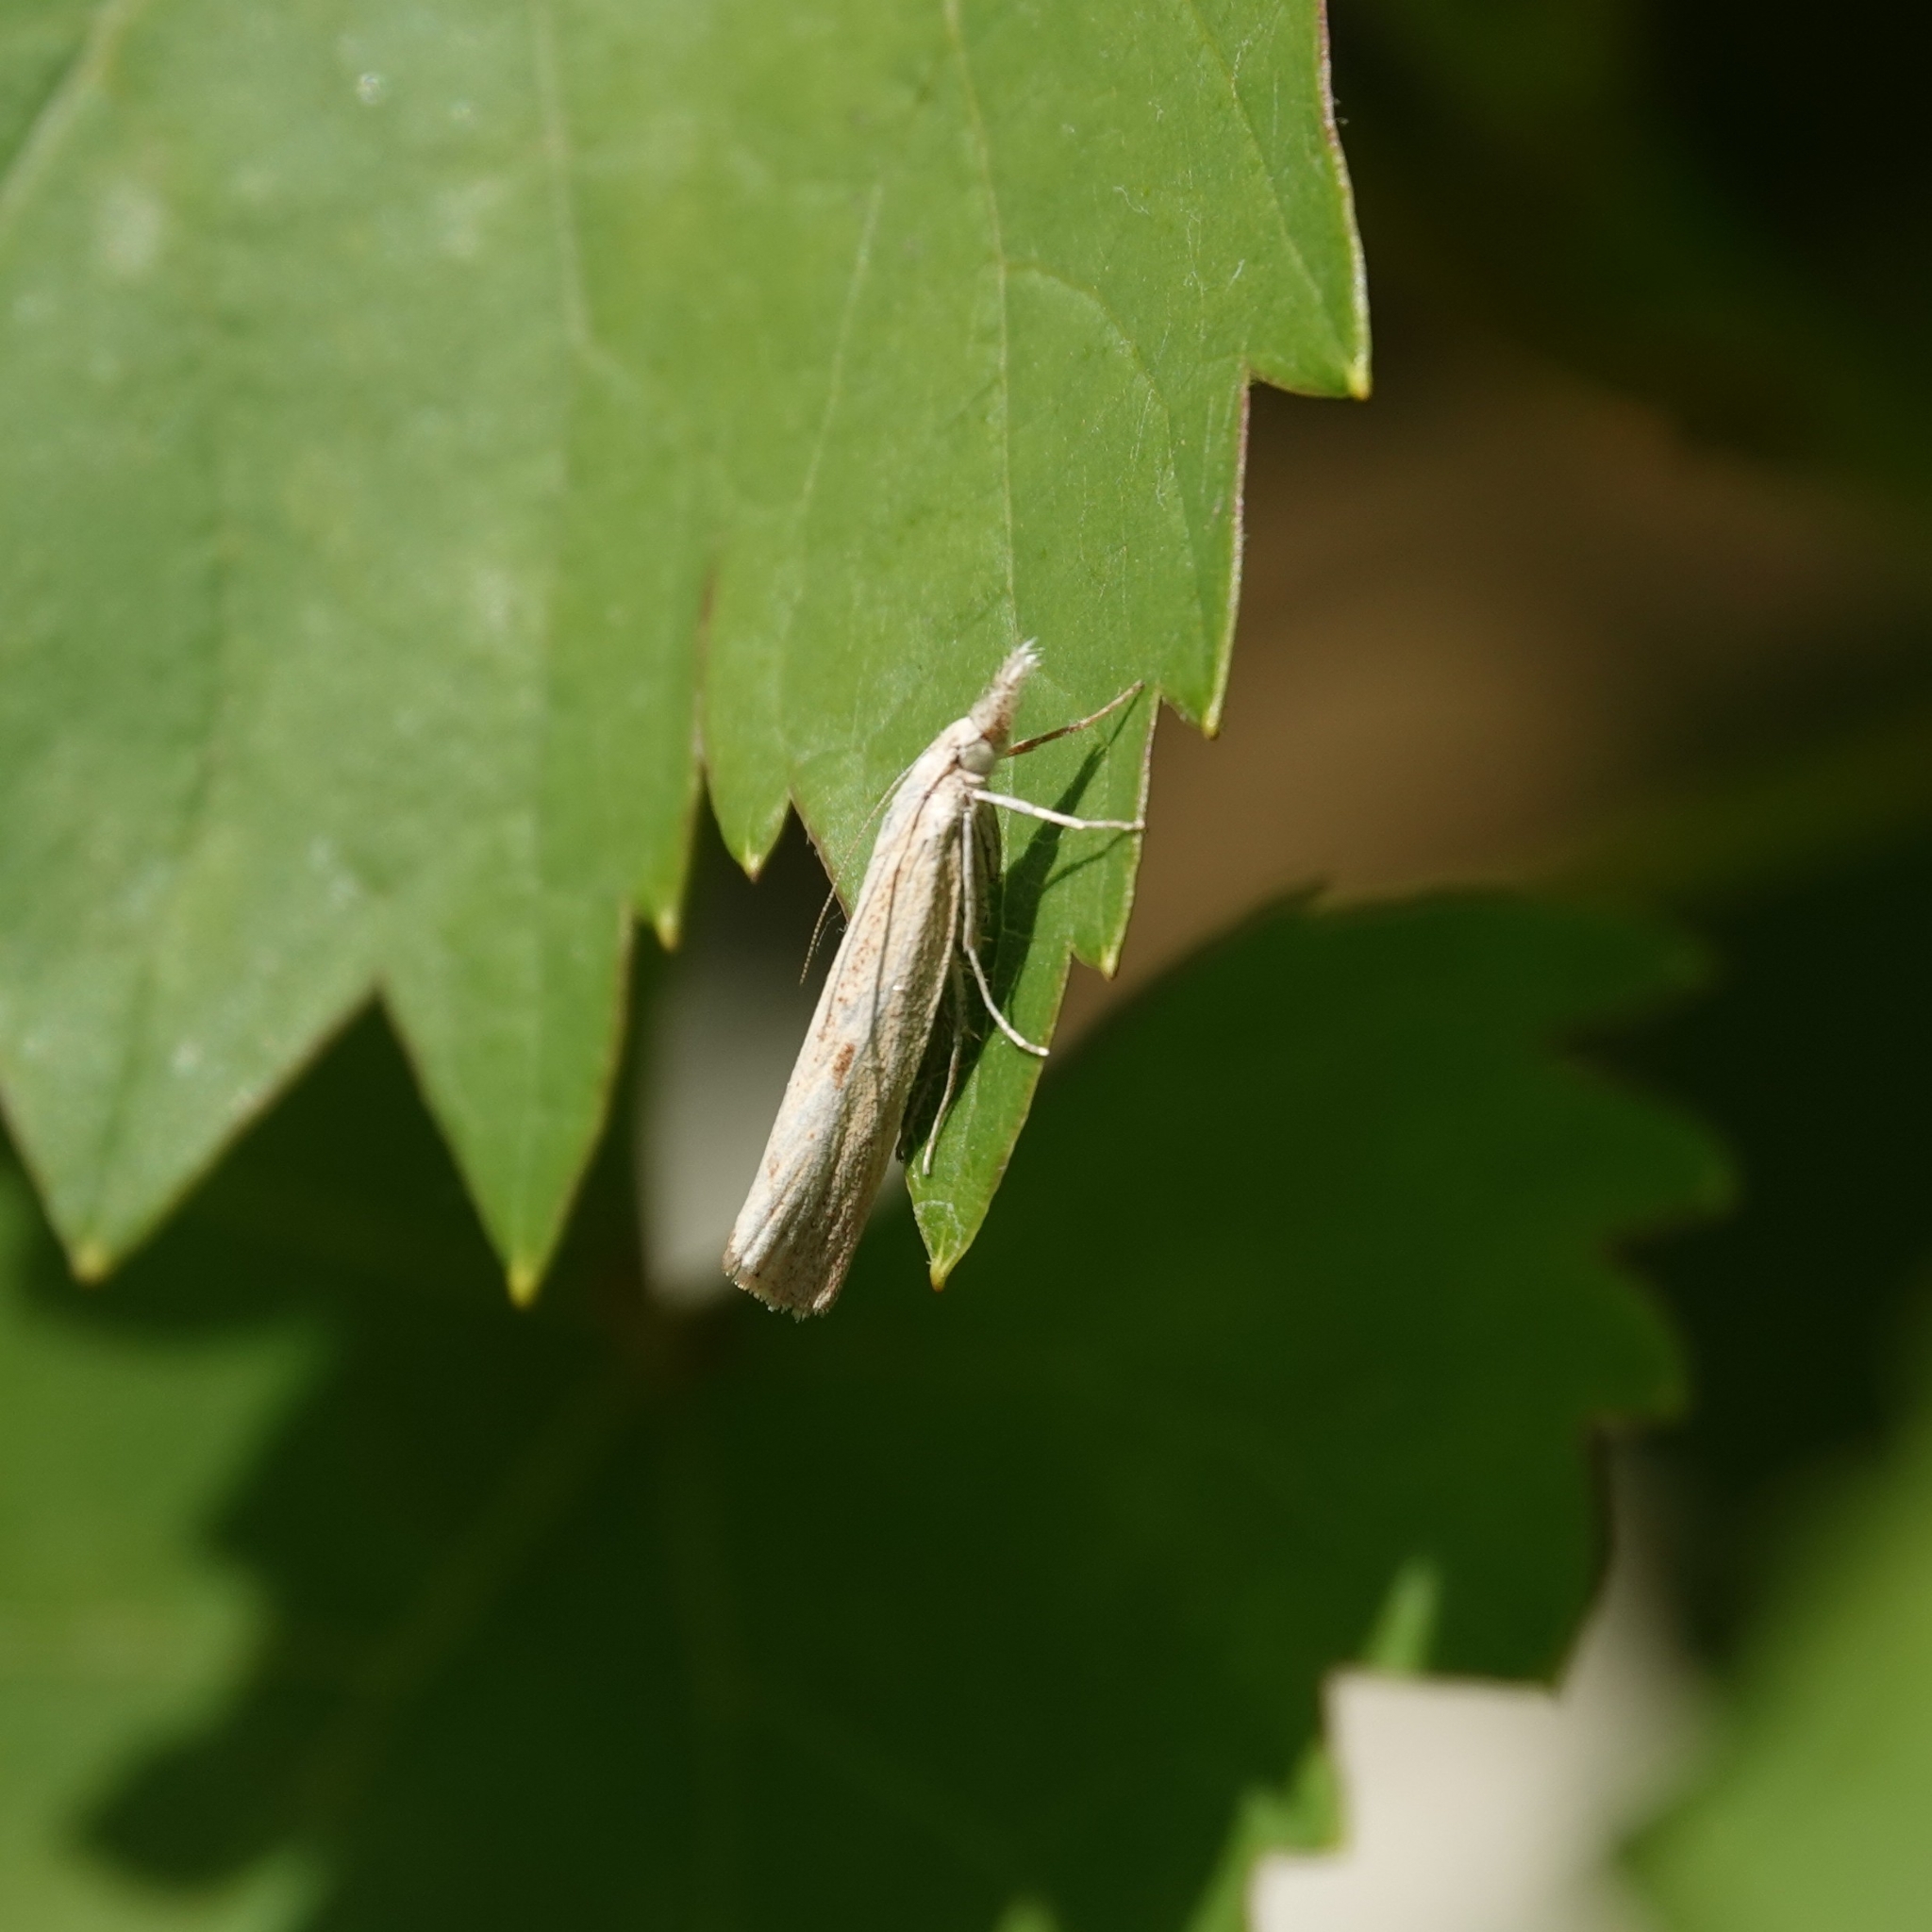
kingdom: Animalia
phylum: Arthropoda
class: Insecta
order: Lepidoptera
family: Crambidae
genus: Agriphila
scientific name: Agriphila inquinatella
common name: Barred grass-veneer
